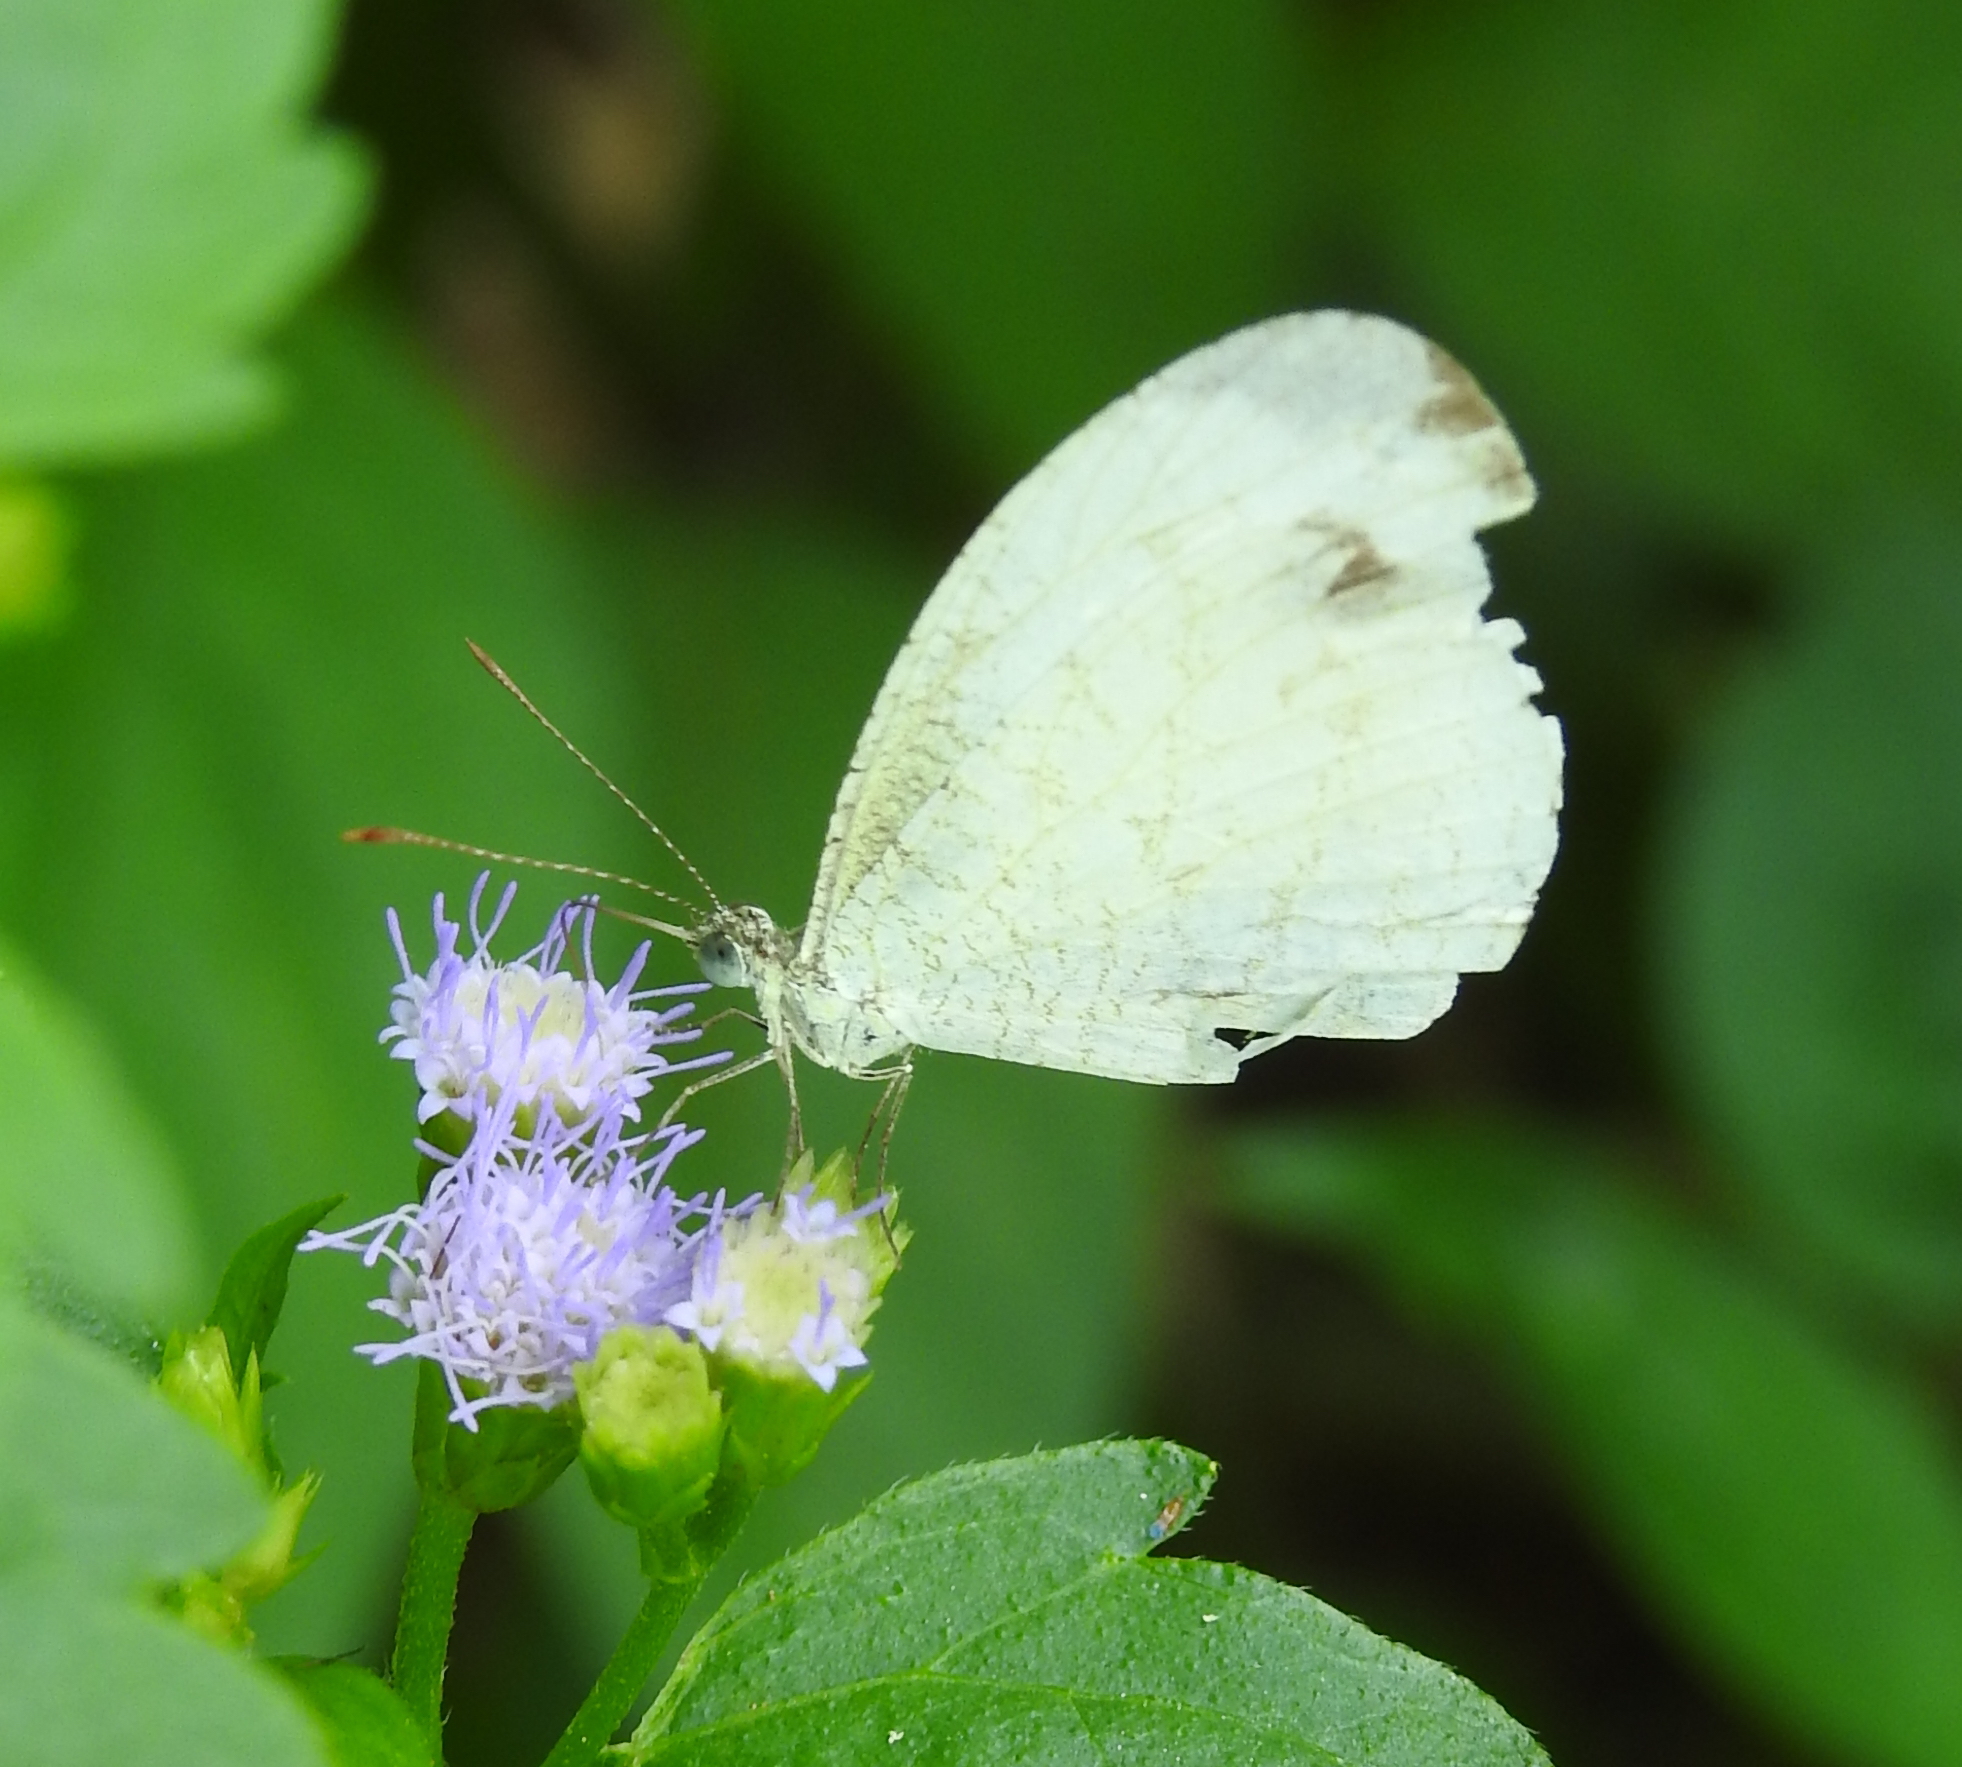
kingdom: Animalia
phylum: Arthropoda
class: Insecta
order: Lepidoptera
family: Pieridae
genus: Leptosia
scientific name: Leptosia nina
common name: Psyche
